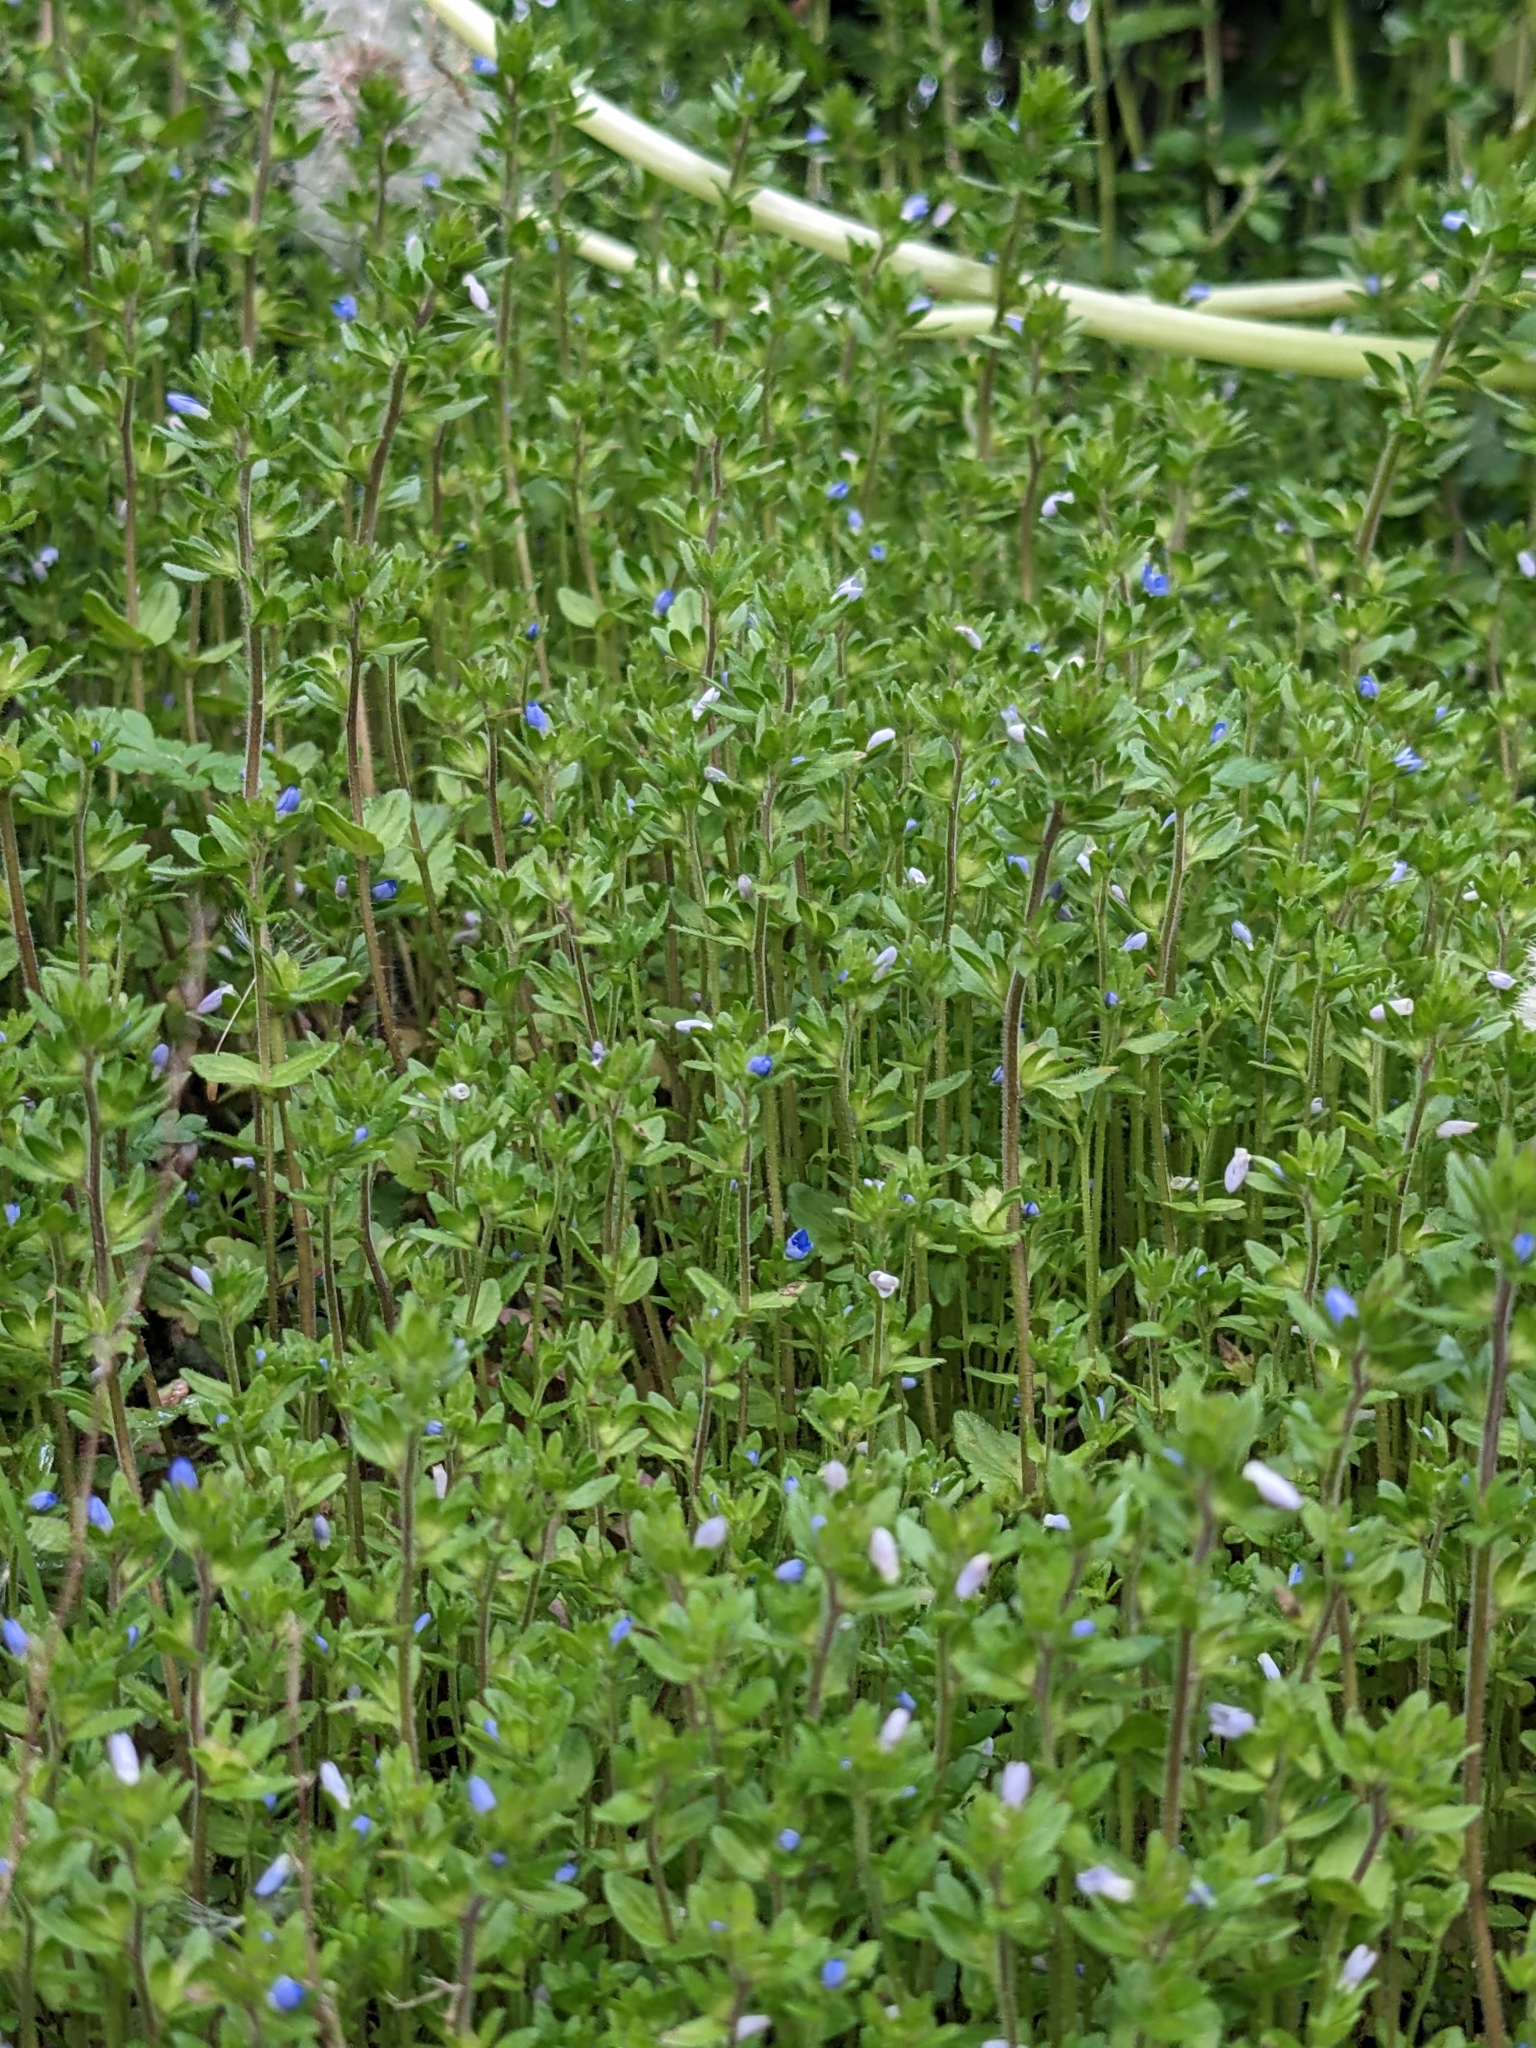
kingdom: Plantae
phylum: Tracheophyta
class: Magnoliopsida
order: Lamiales
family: Plantaginaceae
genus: Veronica
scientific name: Veronica arvensis
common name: Corn speedwell
